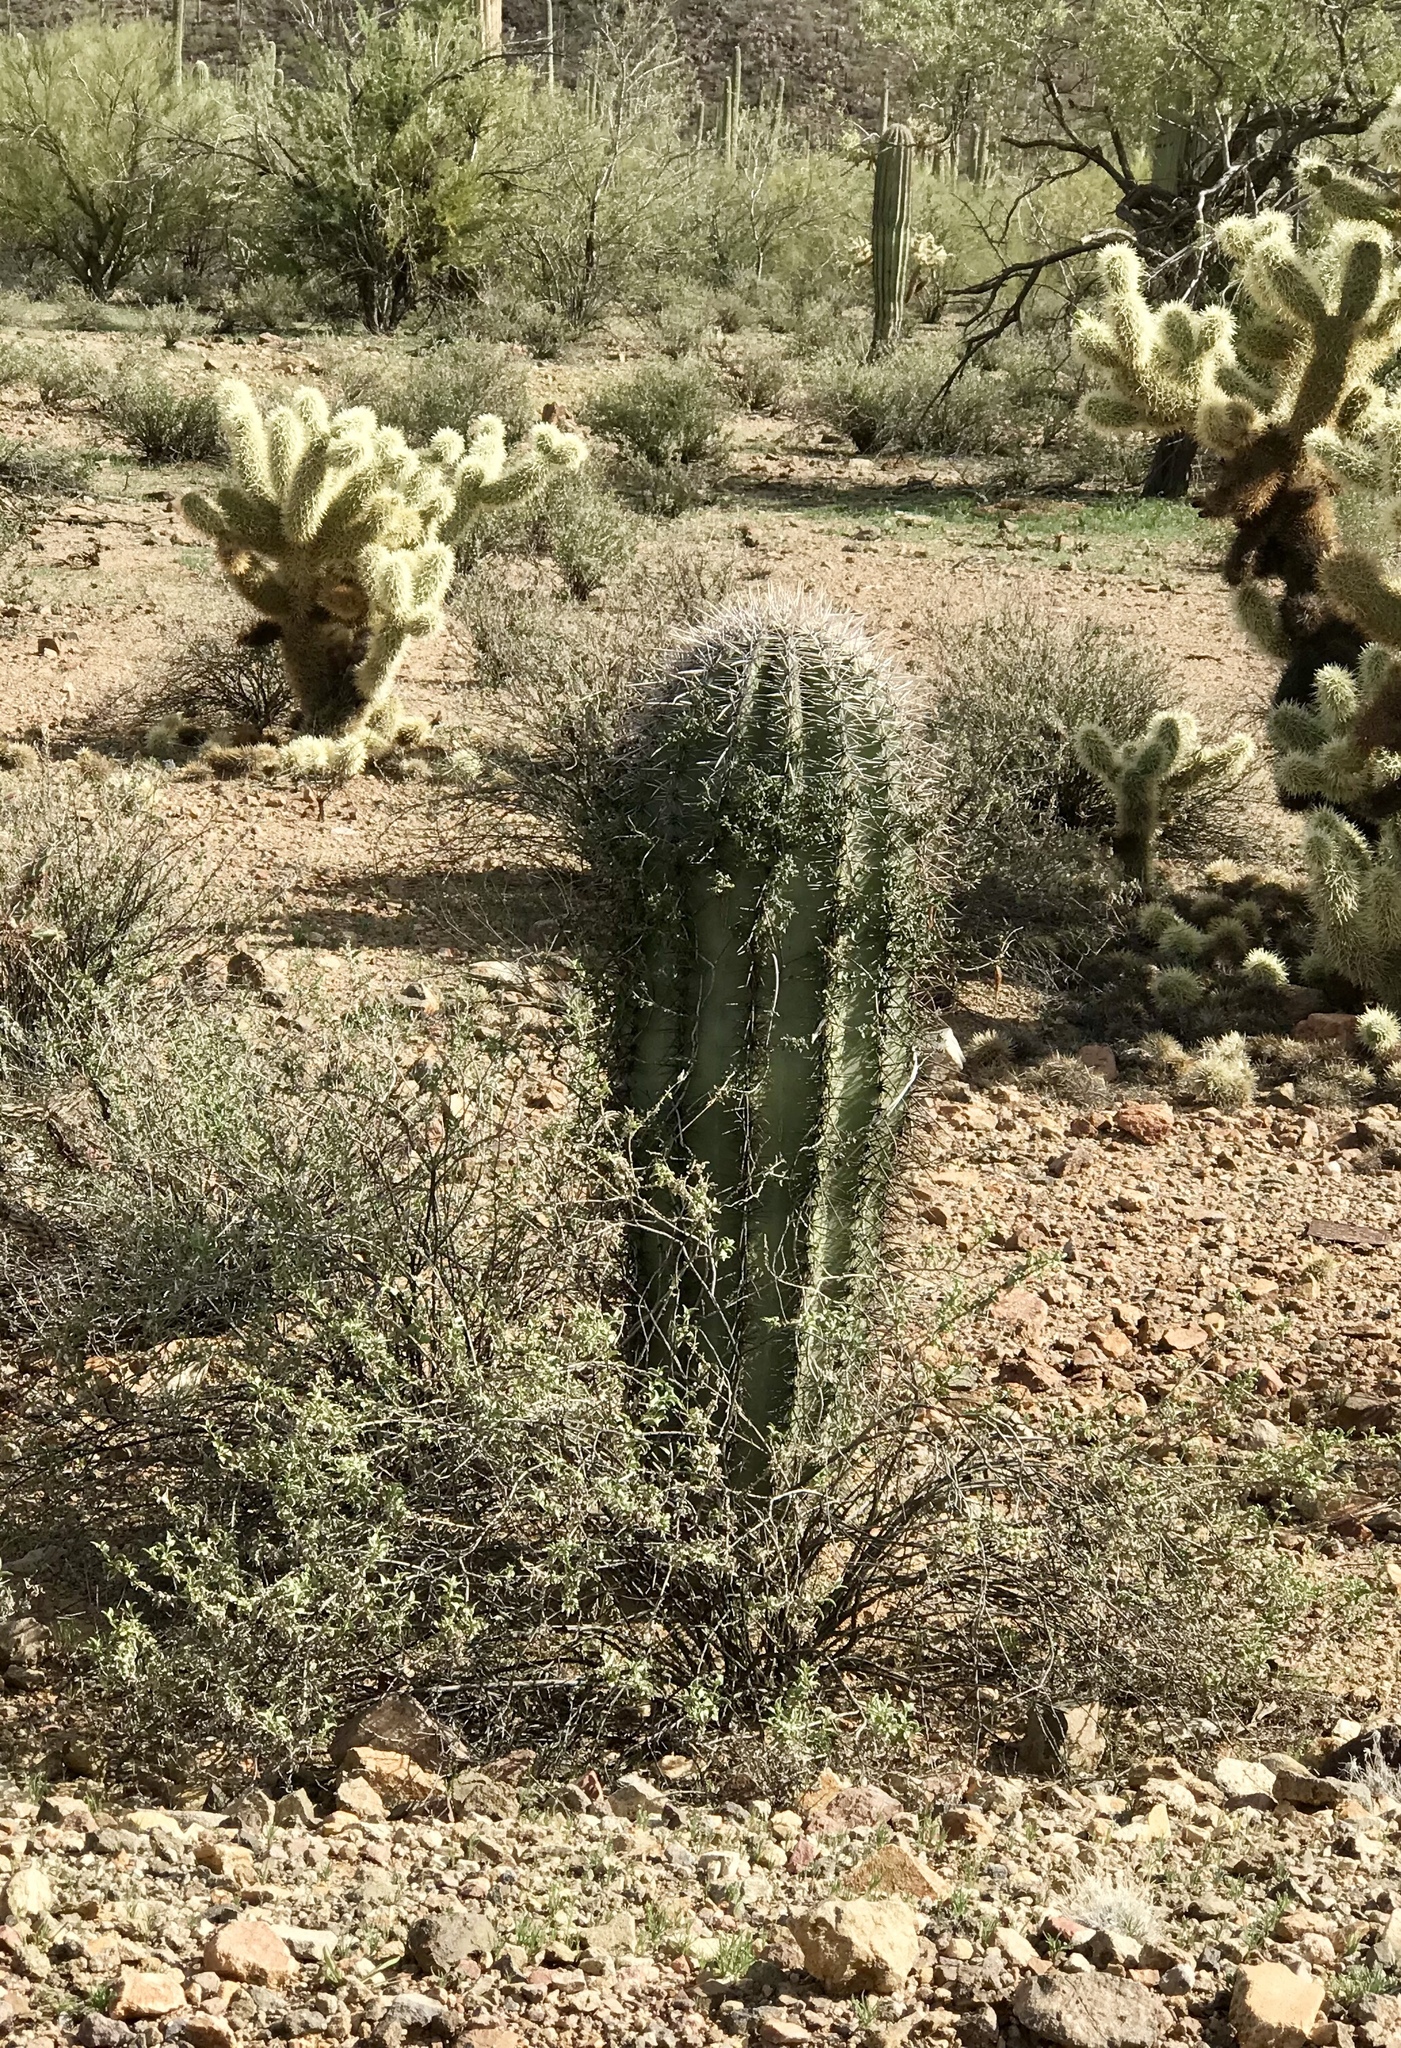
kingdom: Plantae
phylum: Tracheophyta
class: Magnoliopsida
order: Caryophyllales
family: Cactaceae
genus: Carnegiea
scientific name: Carnegiea gigantea
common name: Saguaro
